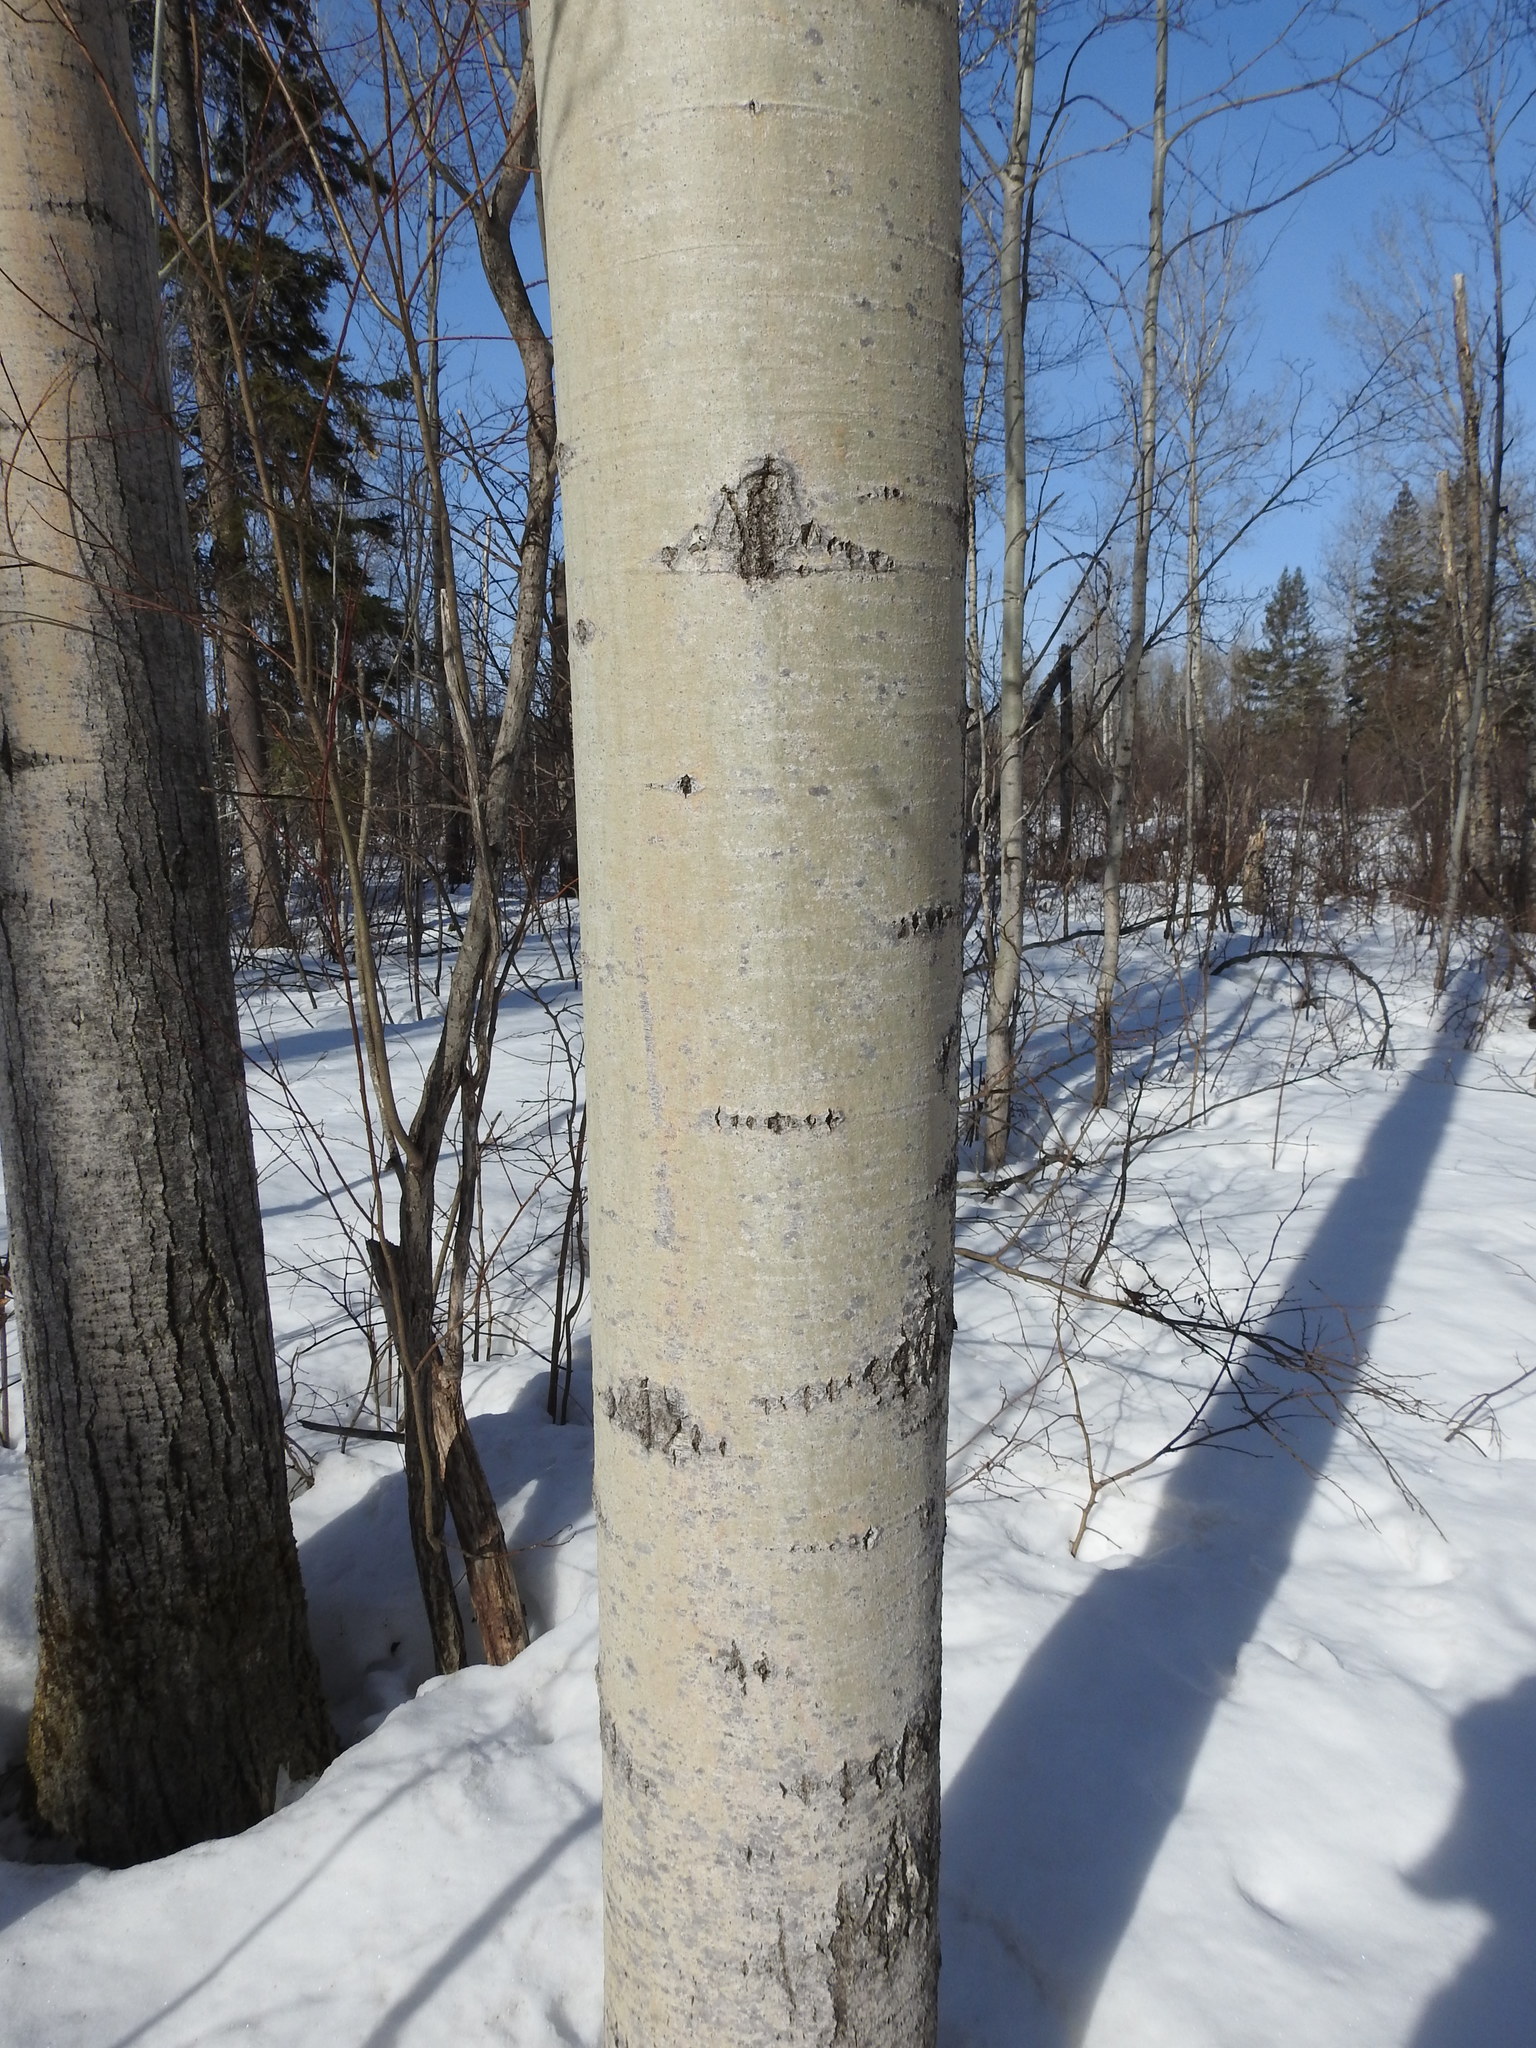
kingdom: Plantae
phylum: Tracheophyta
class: Magnoliopsida
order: Malpighiales
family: Salicaceae
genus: Populus
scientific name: Populus tremuloides
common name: Quaking aspen
